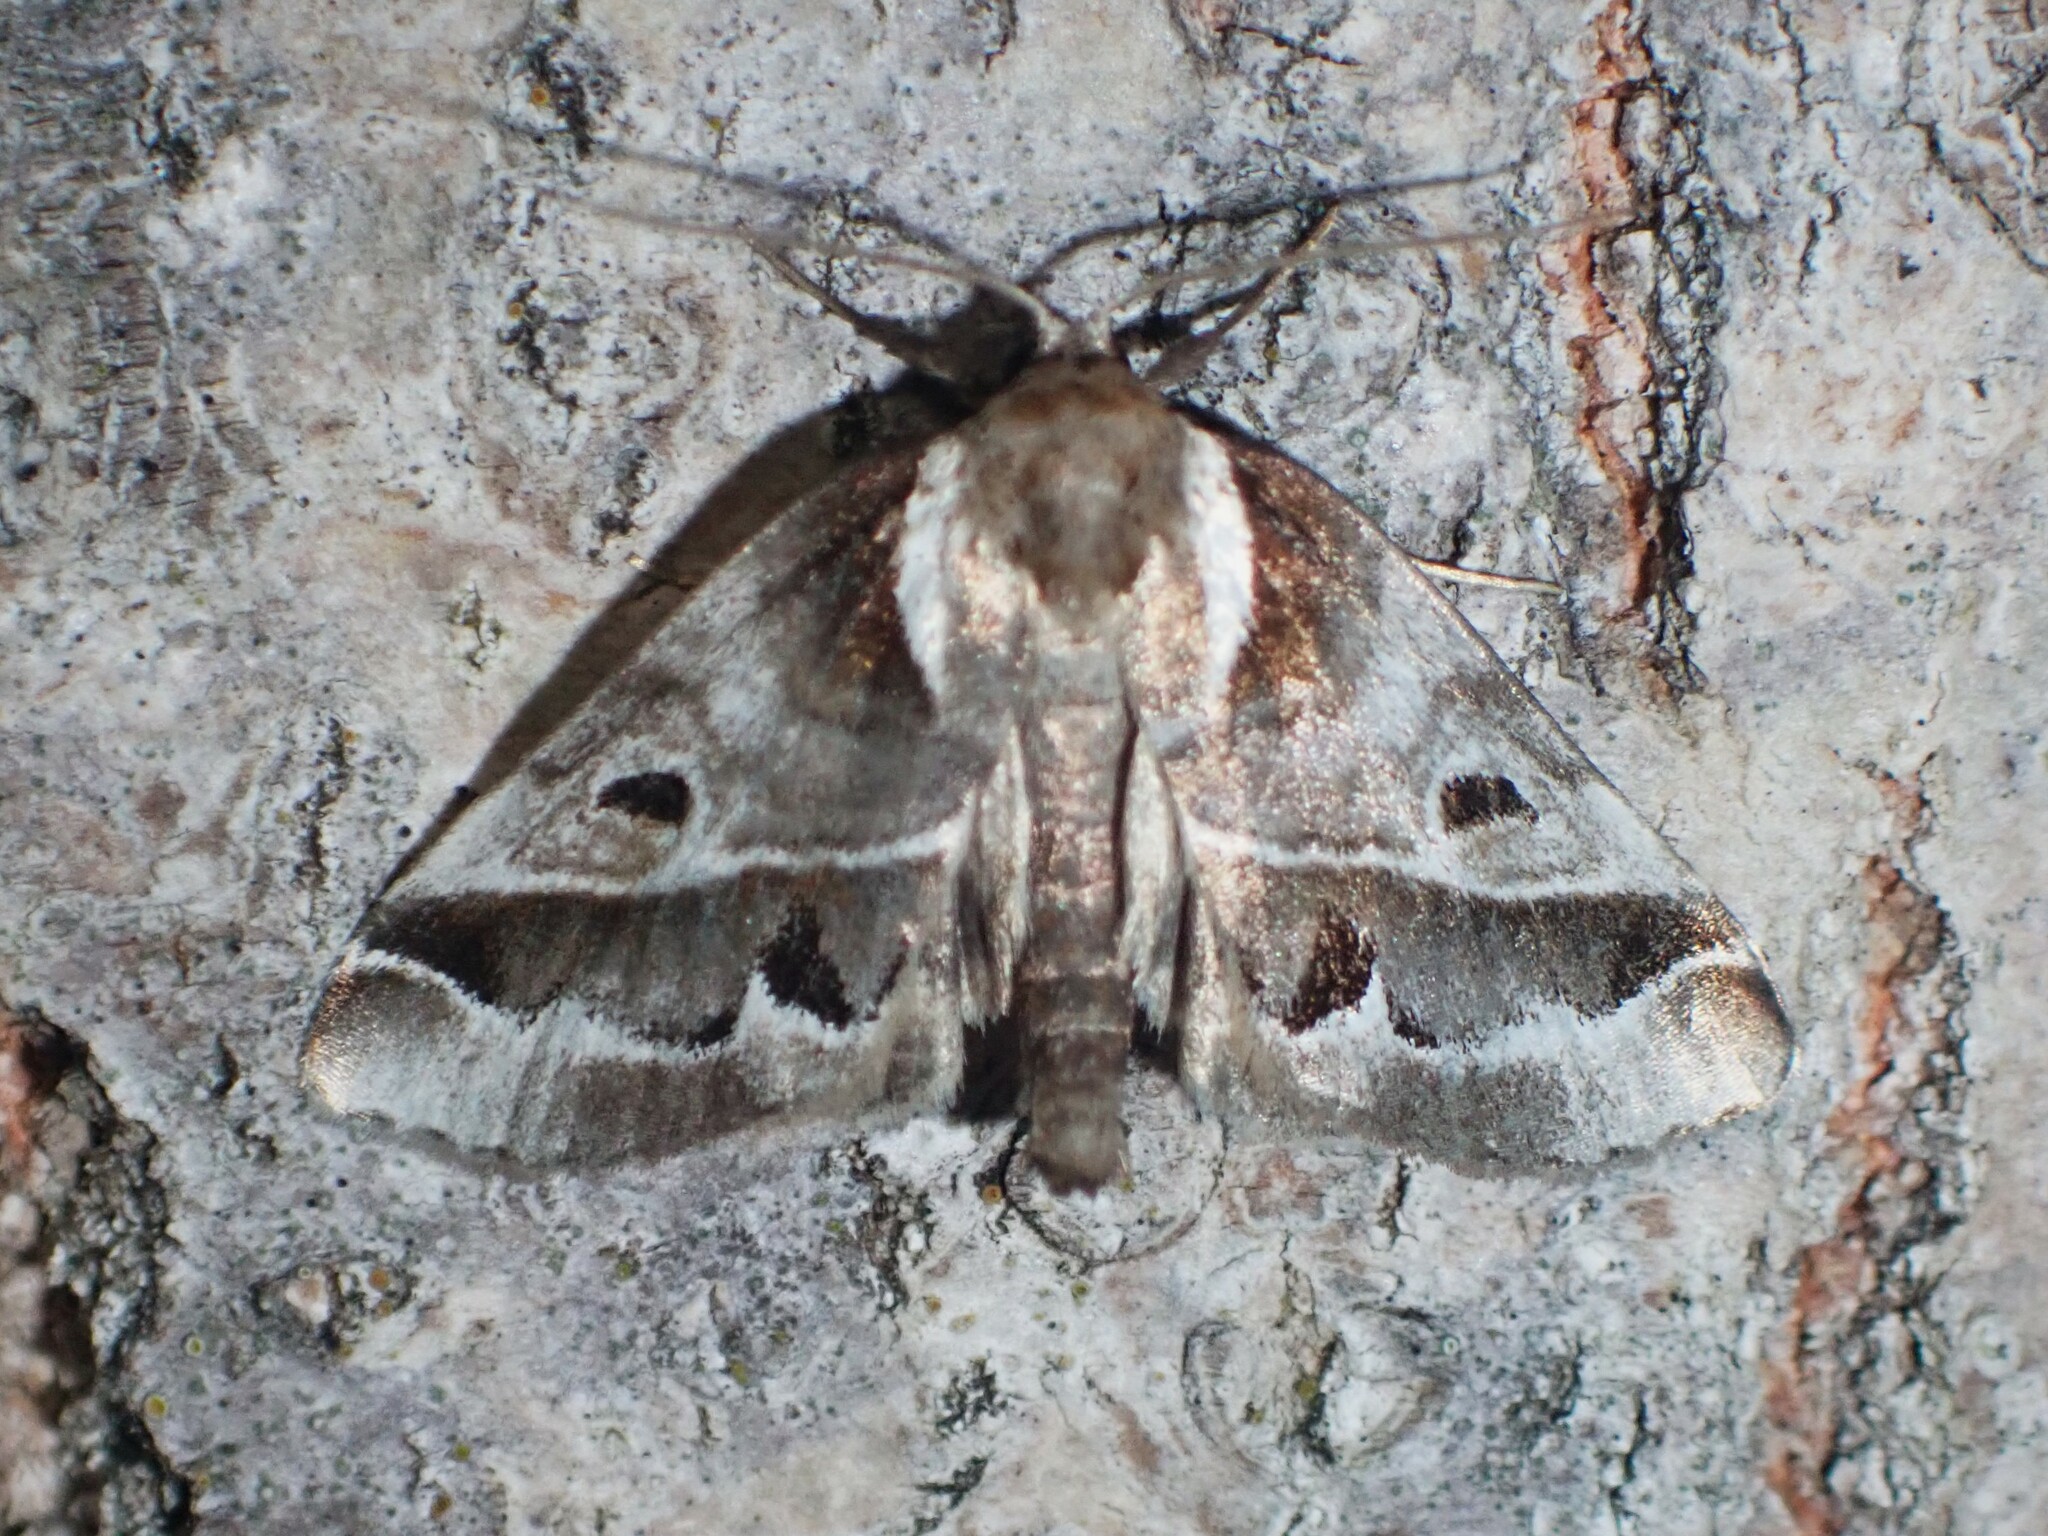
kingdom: Animalia
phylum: Arthropoda
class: Insecta
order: Lepidoptera
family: Nolidae
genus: Baileya
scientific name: Baileya doubledayi
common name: Doubleday's baileya moth
